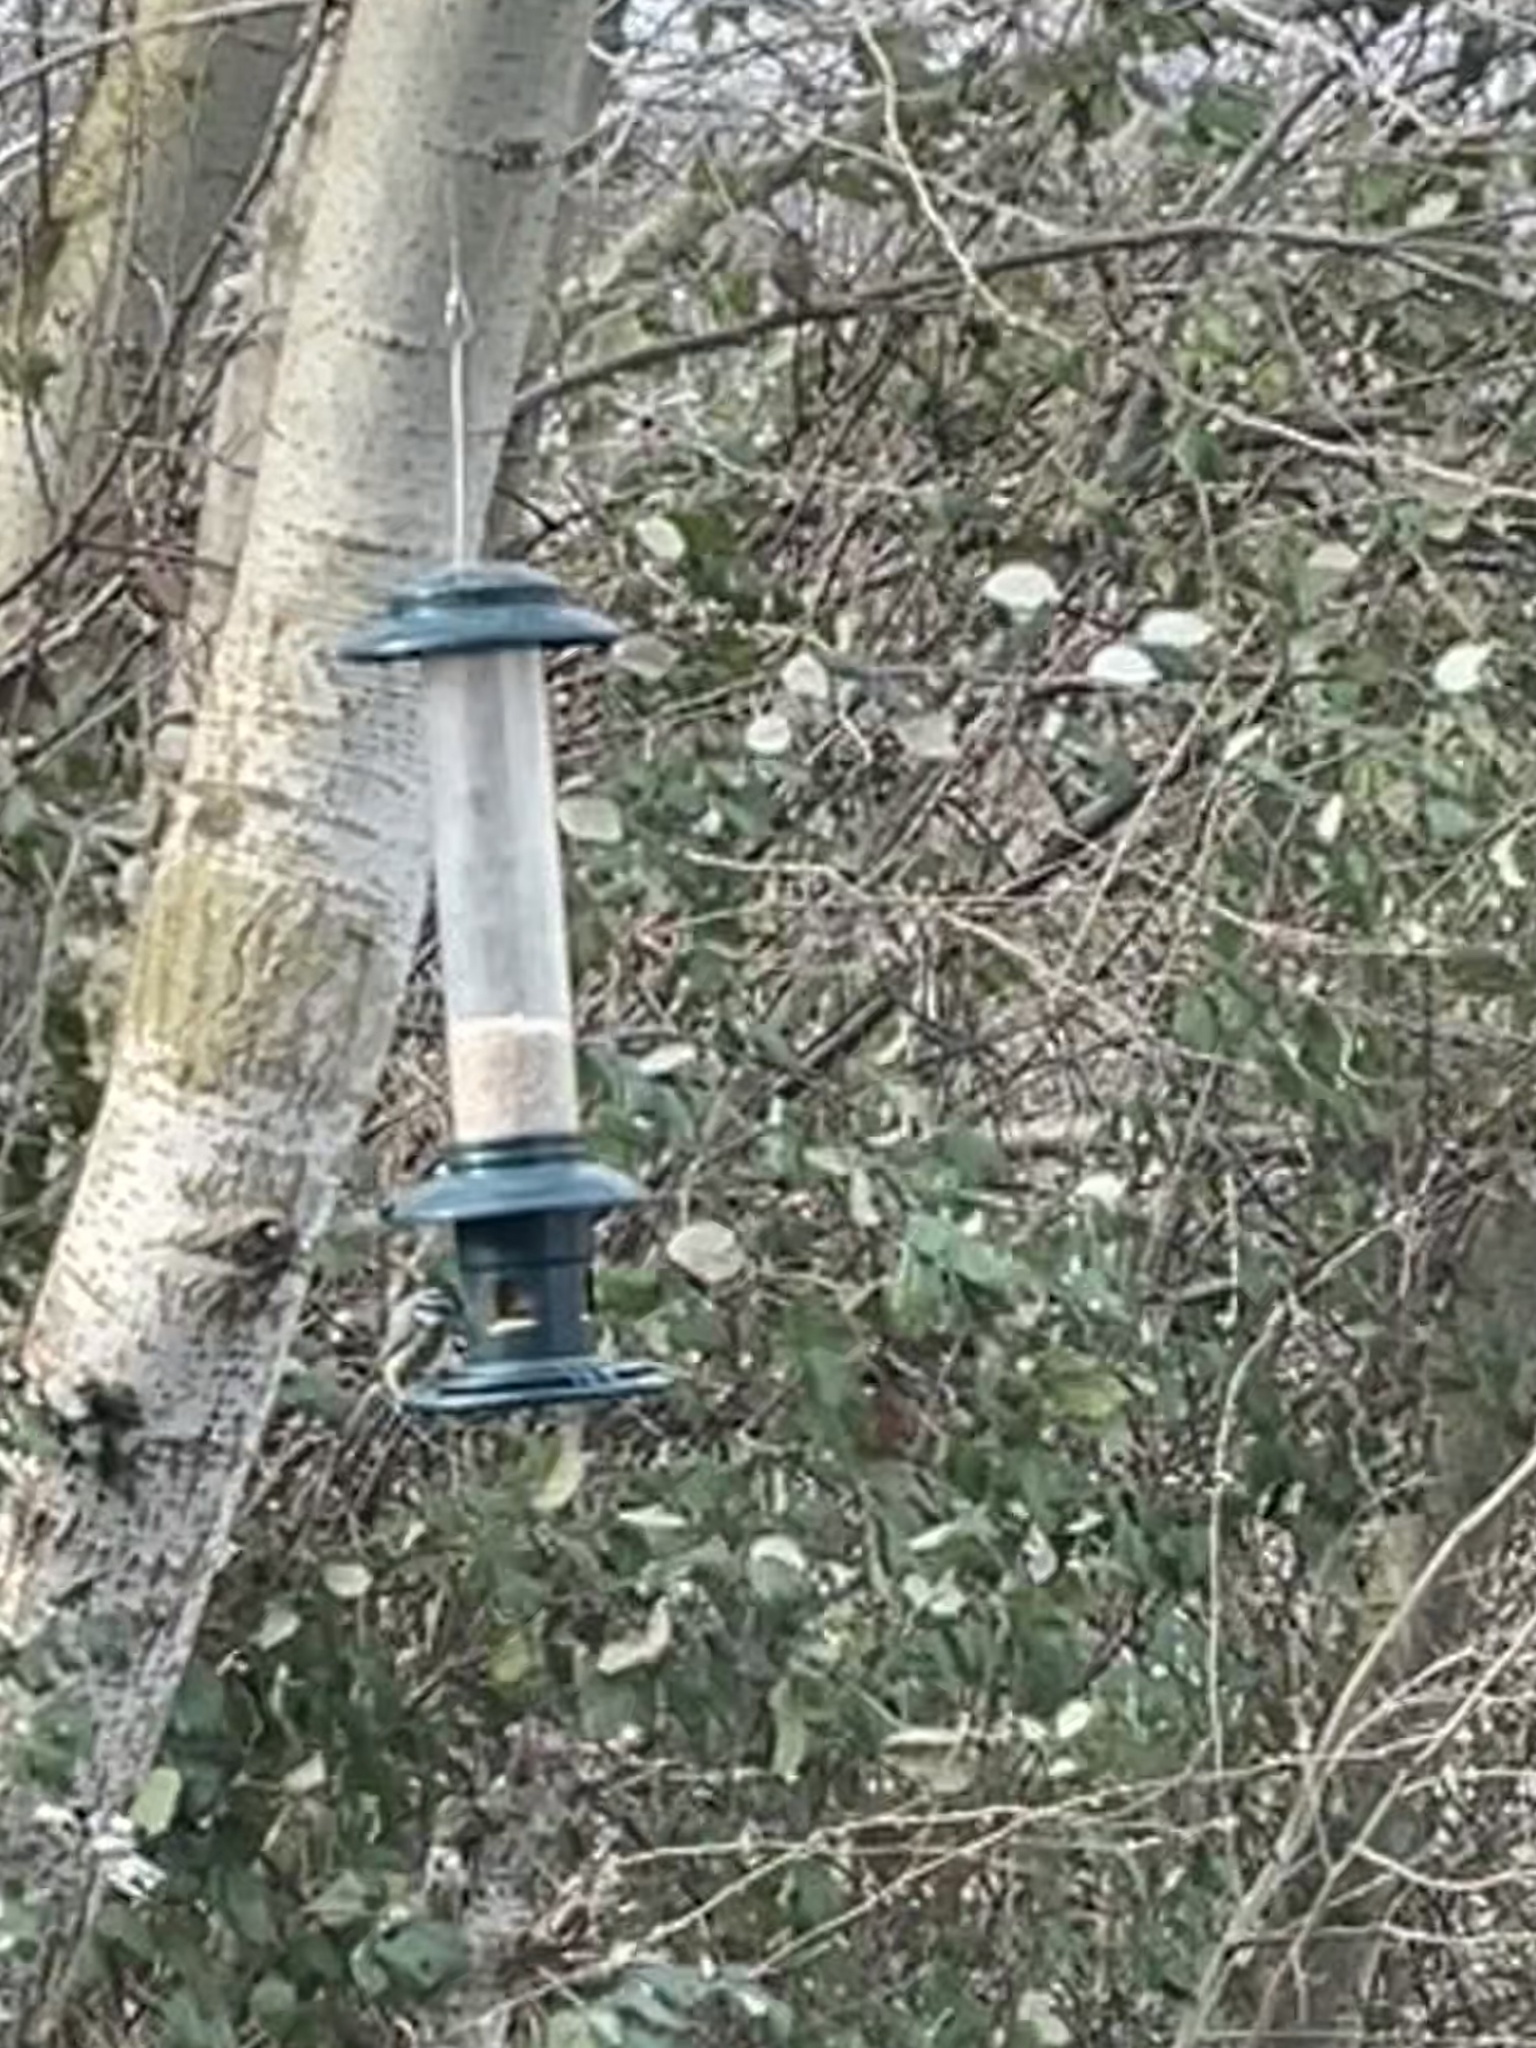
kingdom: Animalia
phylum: Chordata
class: Aves
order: Passeriformes
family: Paridae
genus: Cyanistes
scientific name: Cyanistes caeruleus
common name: Eurasian blue tit
